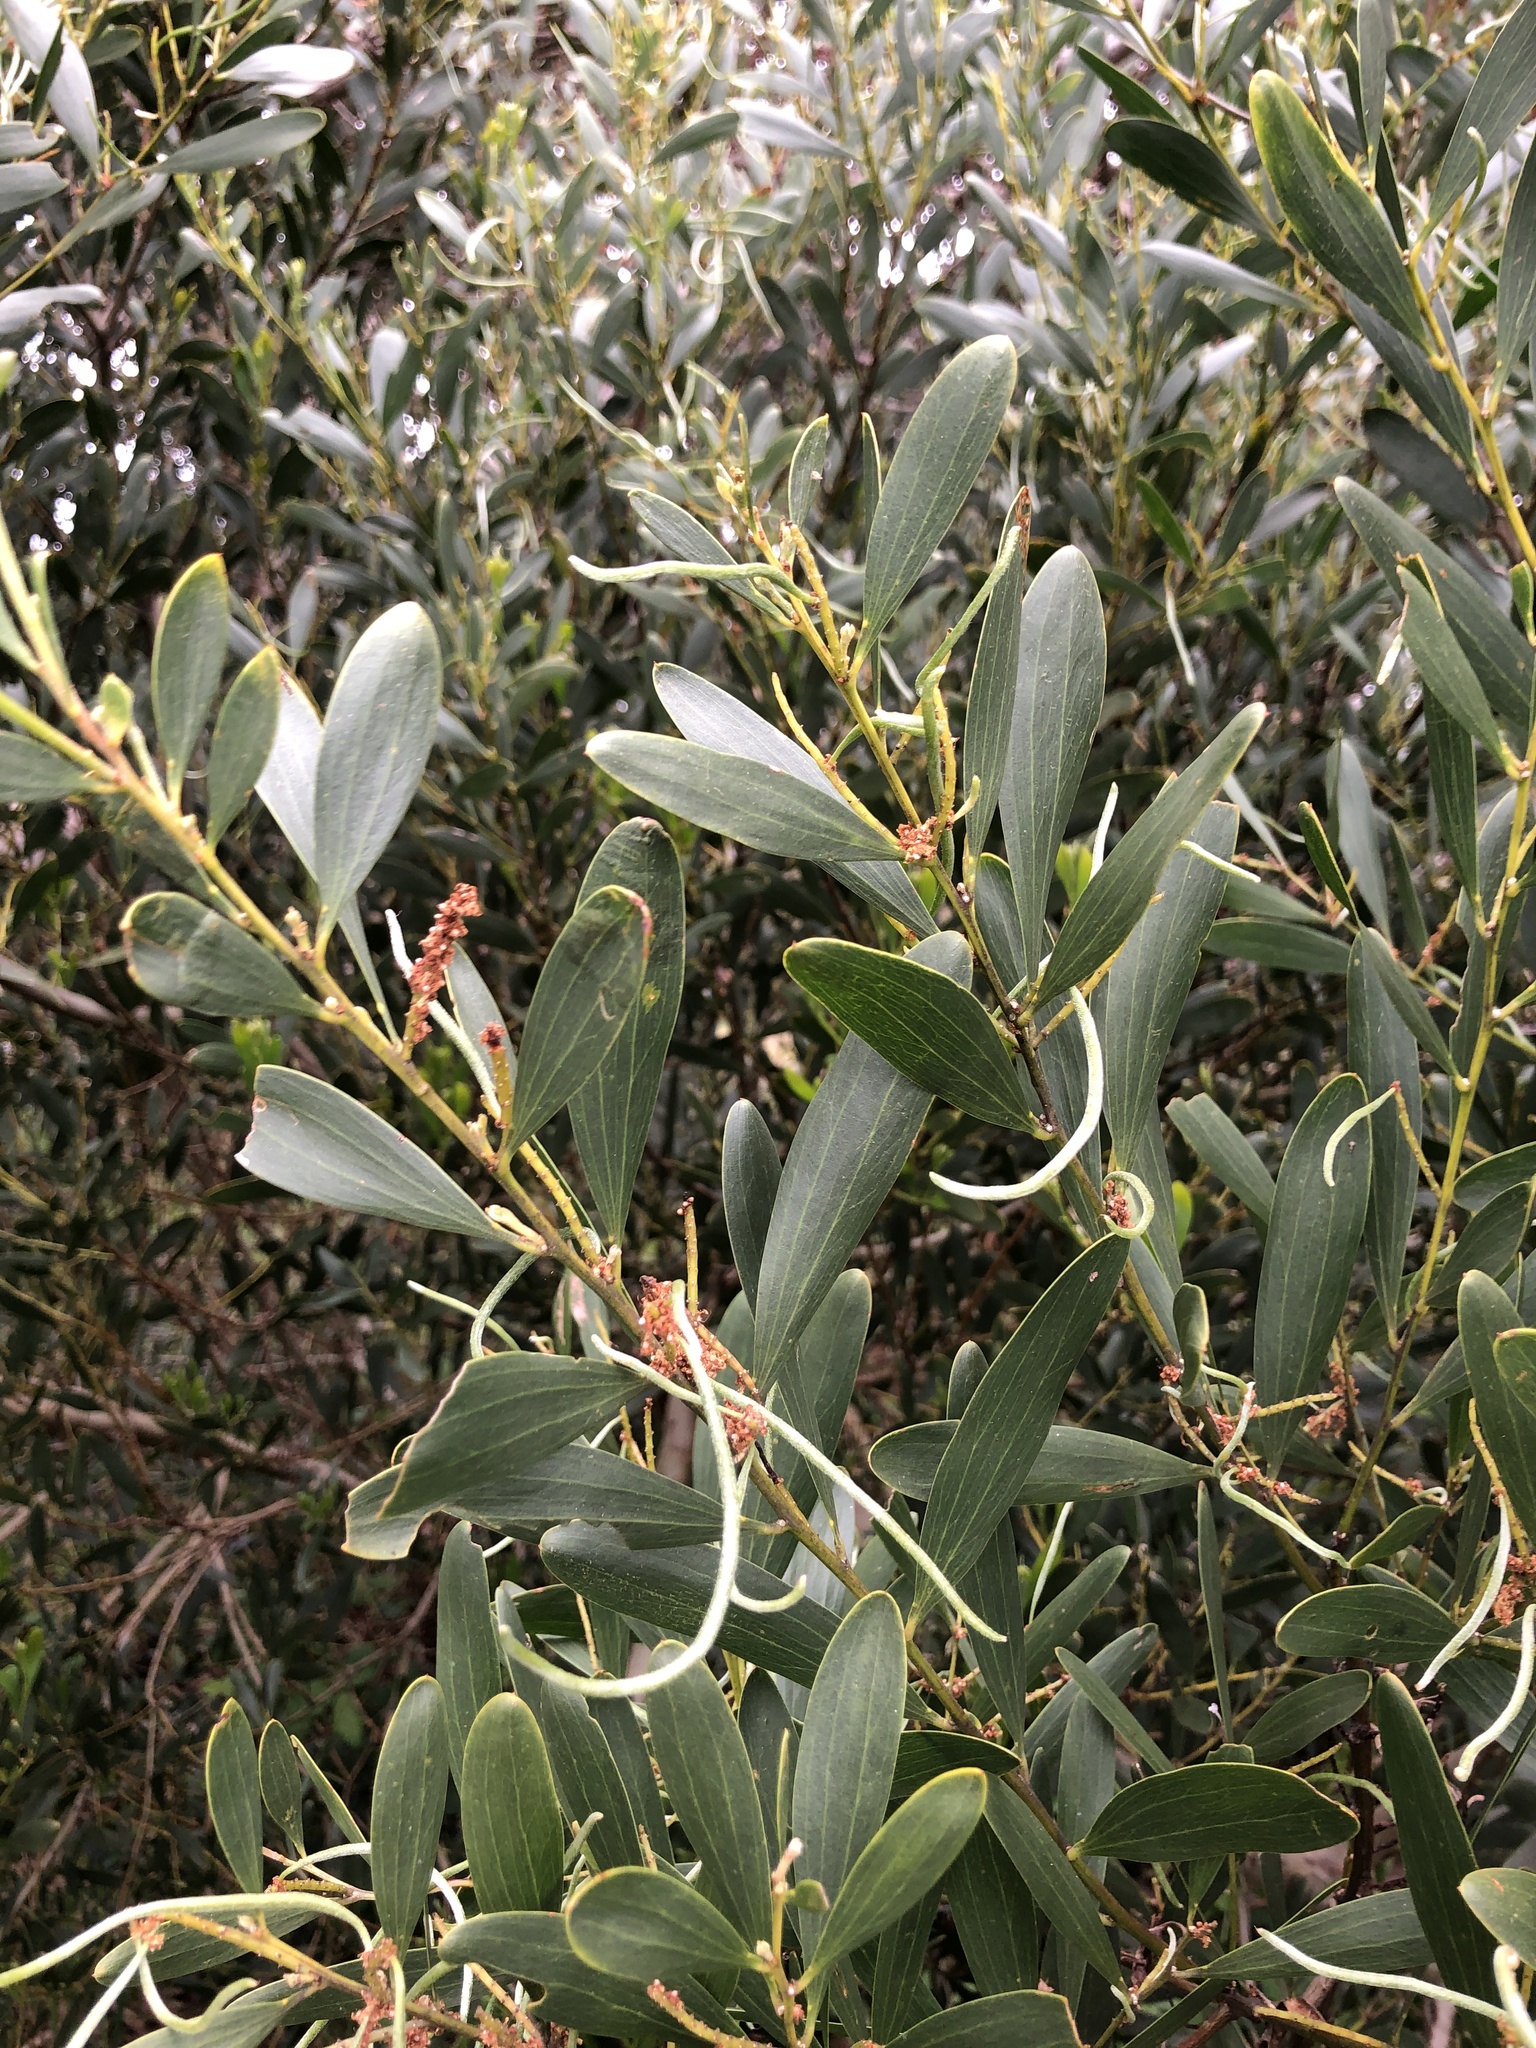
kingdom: Plantae
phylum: Tracheophyta
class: Magnoliopsida
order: Fabales
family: Fabaceae
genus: Acacia
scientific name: Acacia longifolia
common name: Sydney golden wattle
